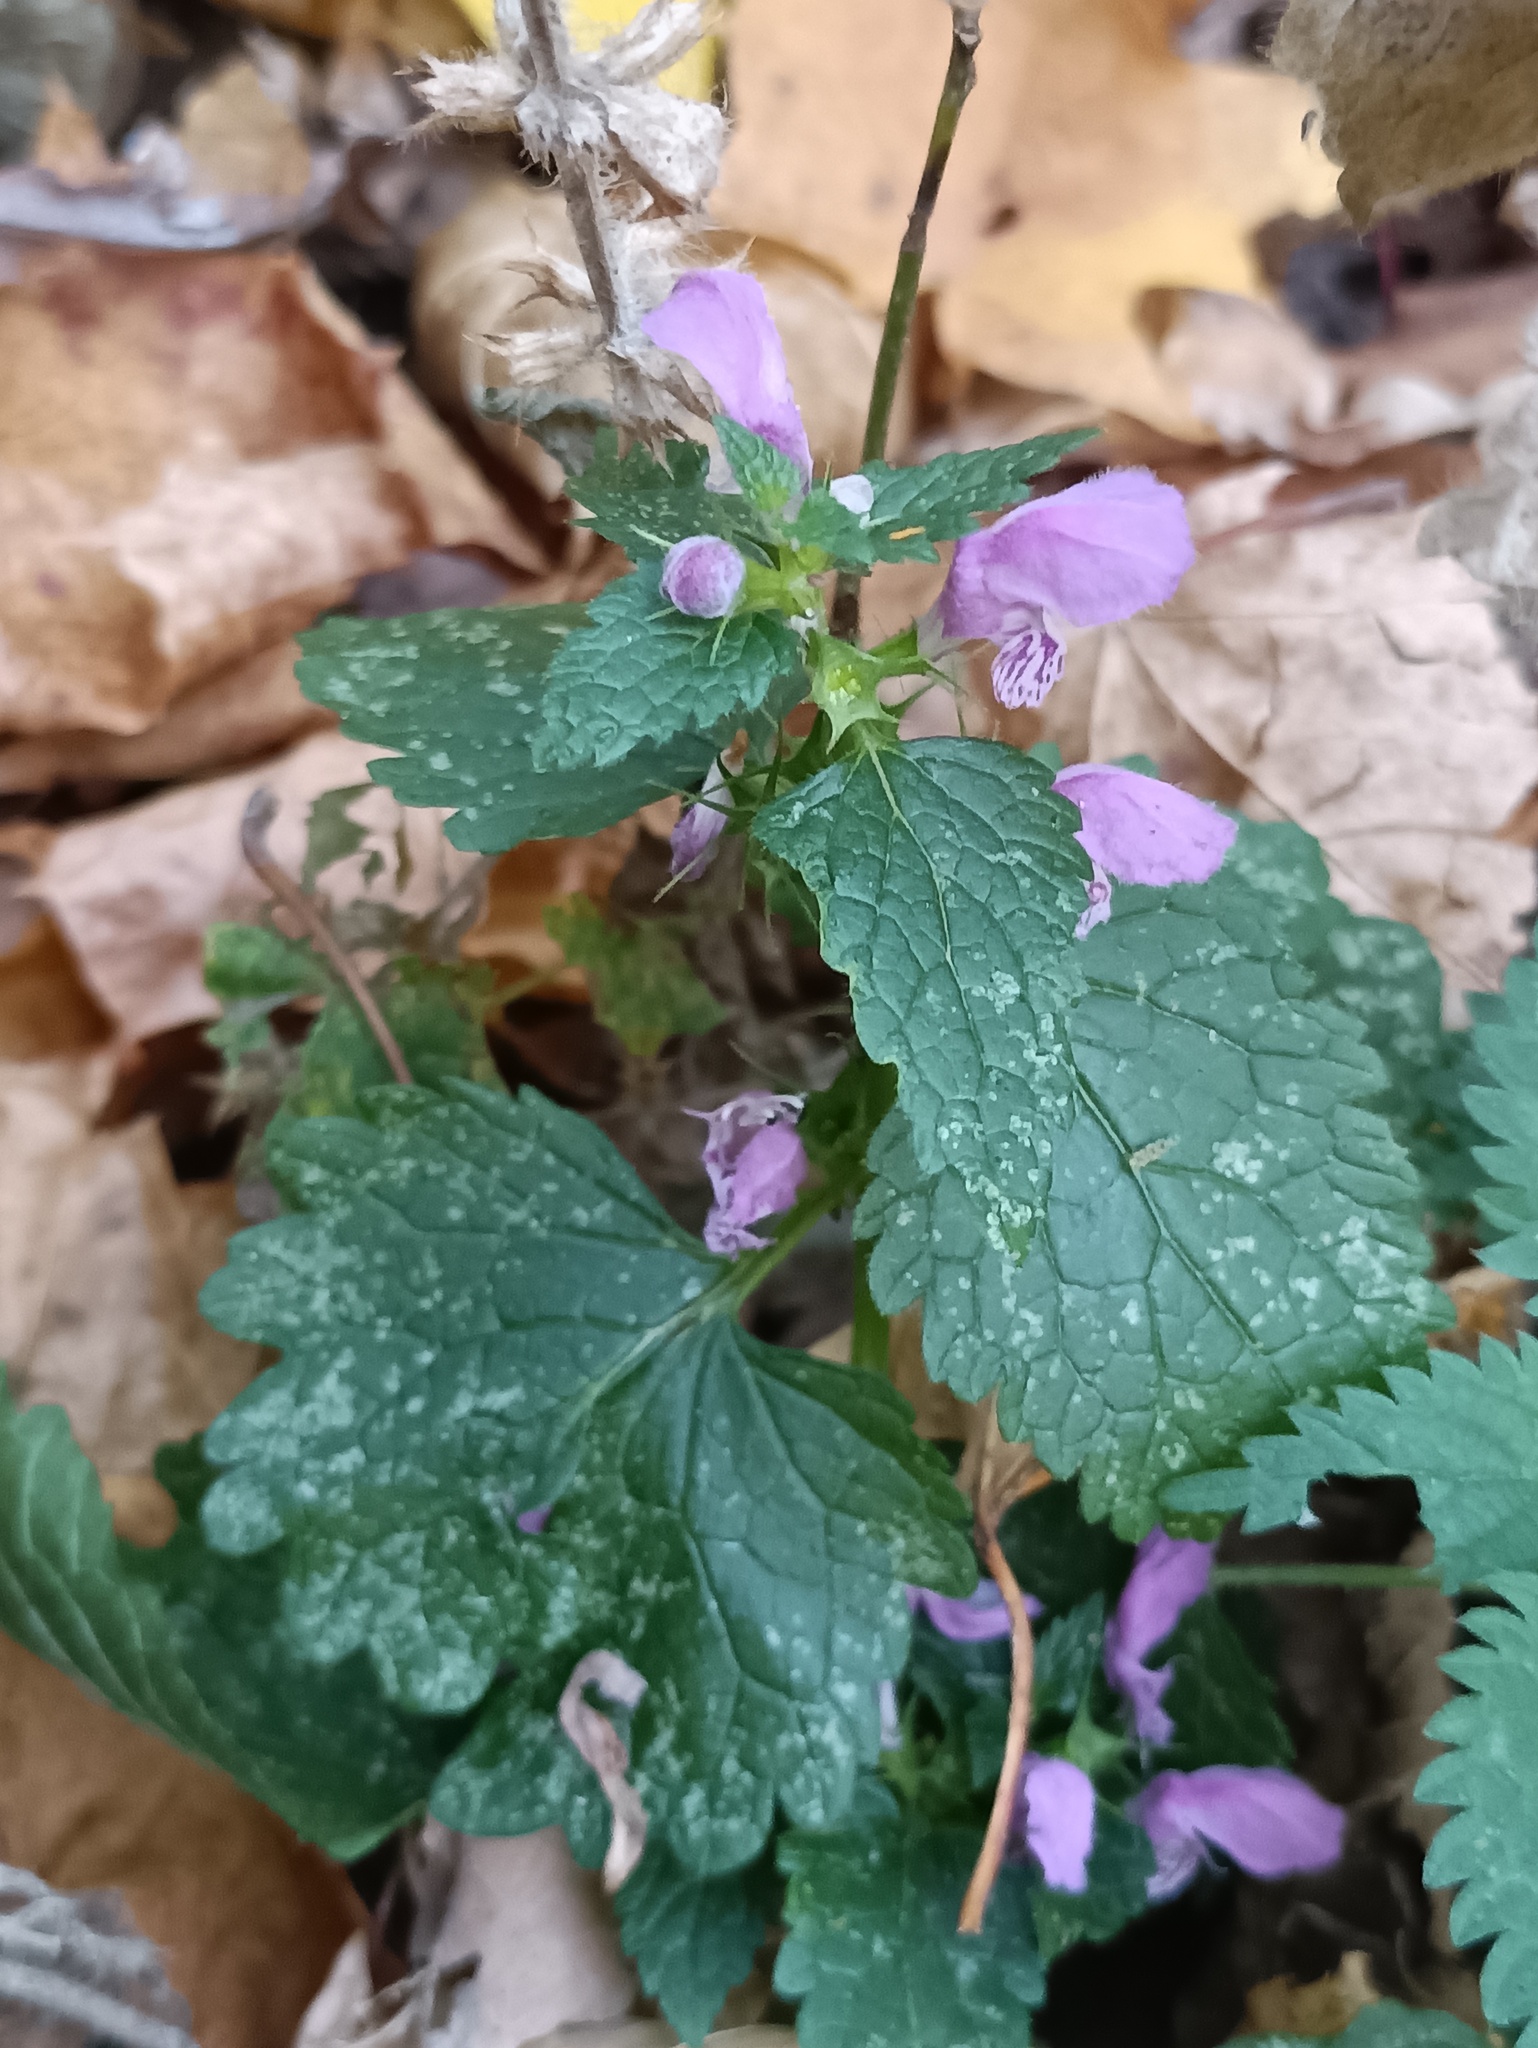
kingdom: Plantae
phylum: Tracheophyta
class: Magnoliopsida
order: Lamiales
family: Lamiaceae
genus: Lamium
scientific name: Lamium maculatum
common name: Spotted dead-nettle
